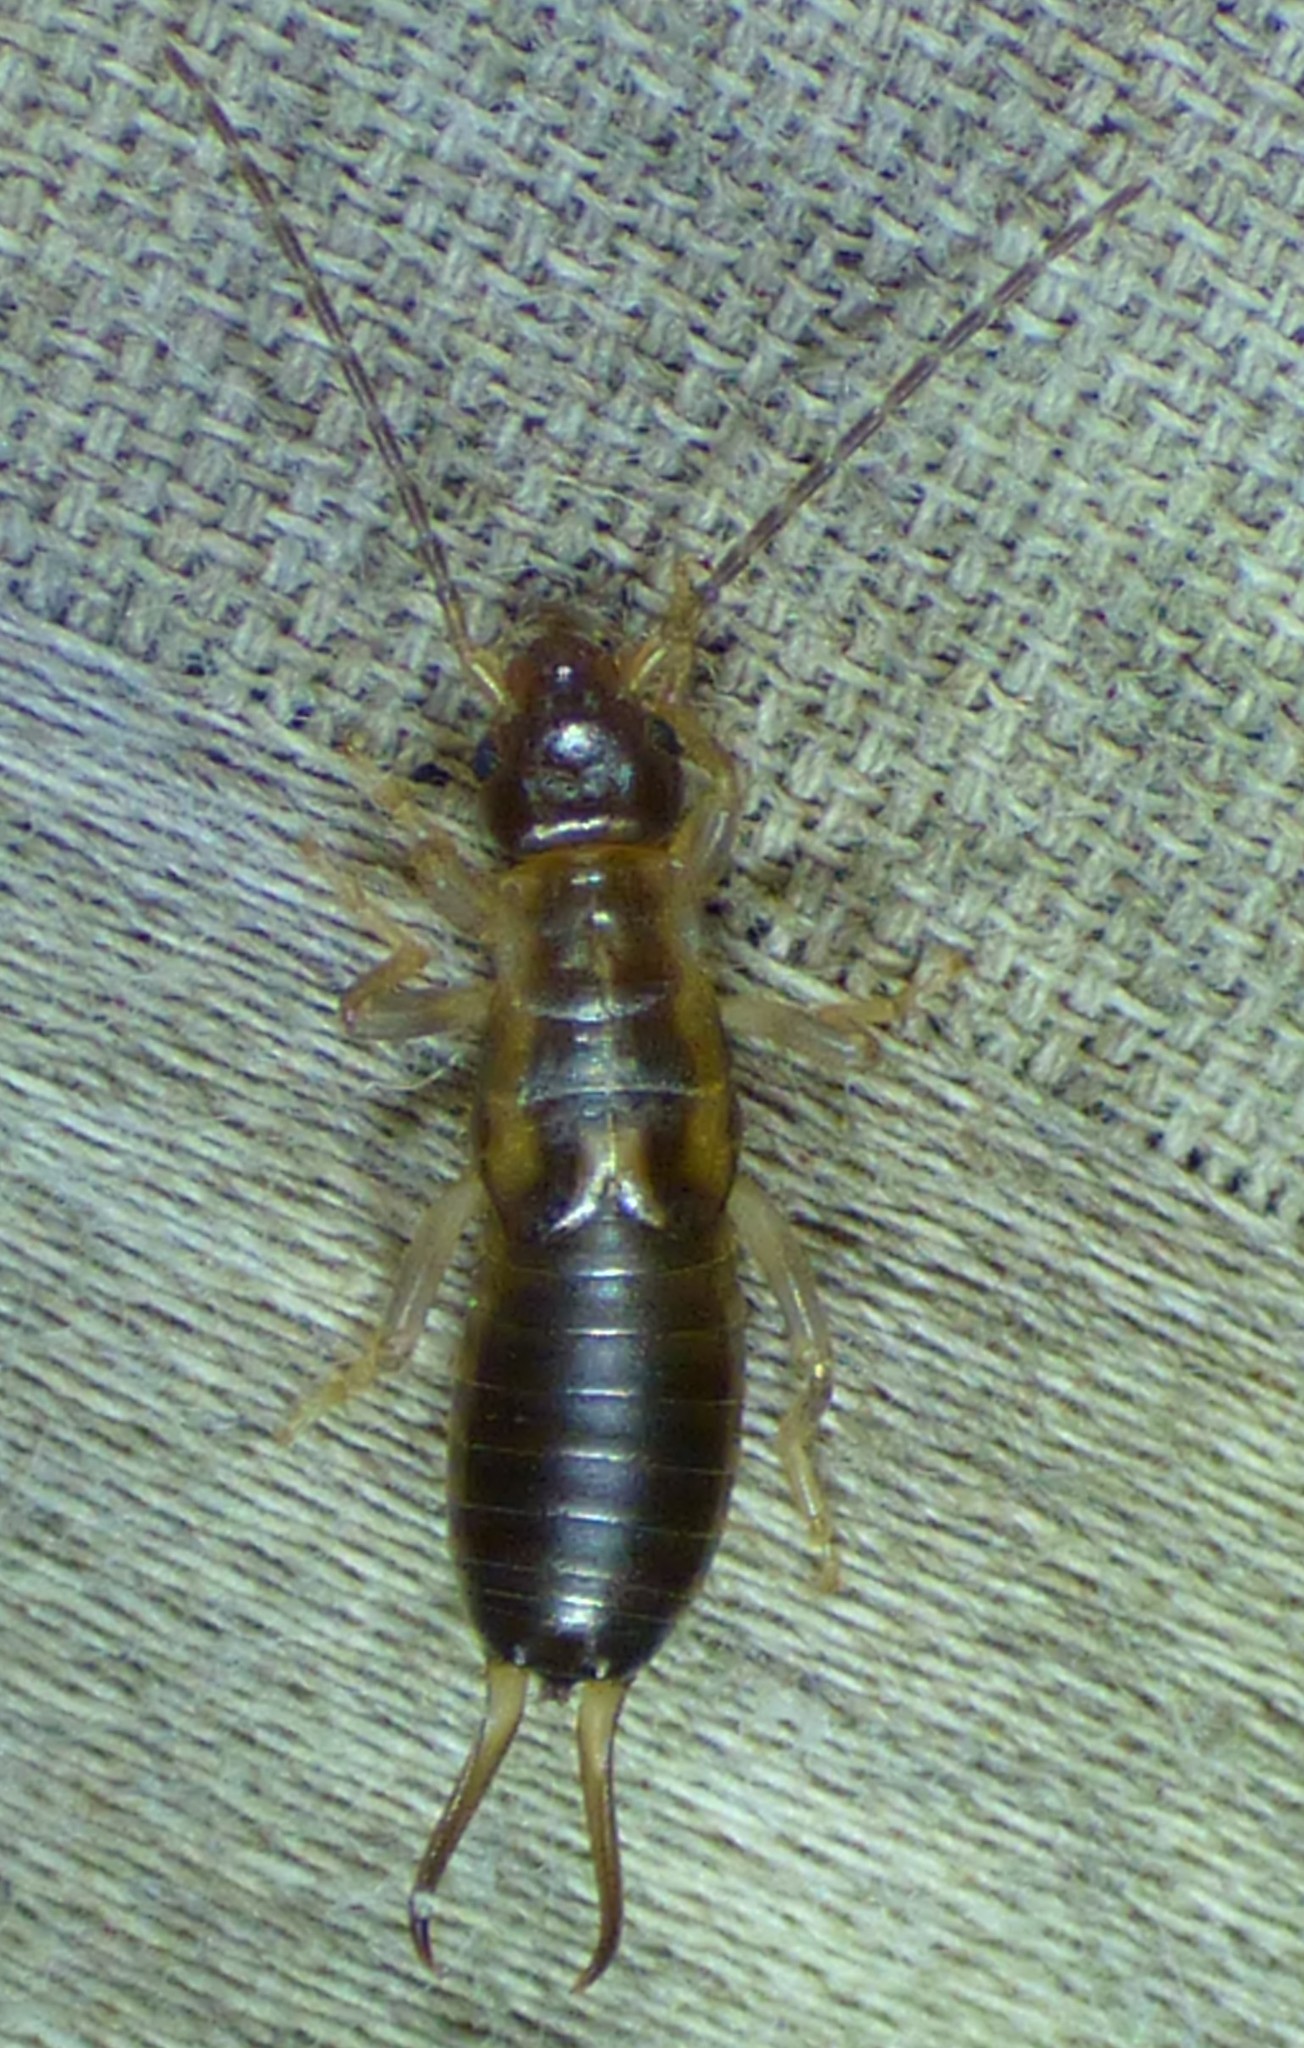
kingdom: Animalia
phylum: Arthropoda
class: Insecta
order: Dermaptera
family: Forficulidae
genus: Forficula
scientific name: Forficula
